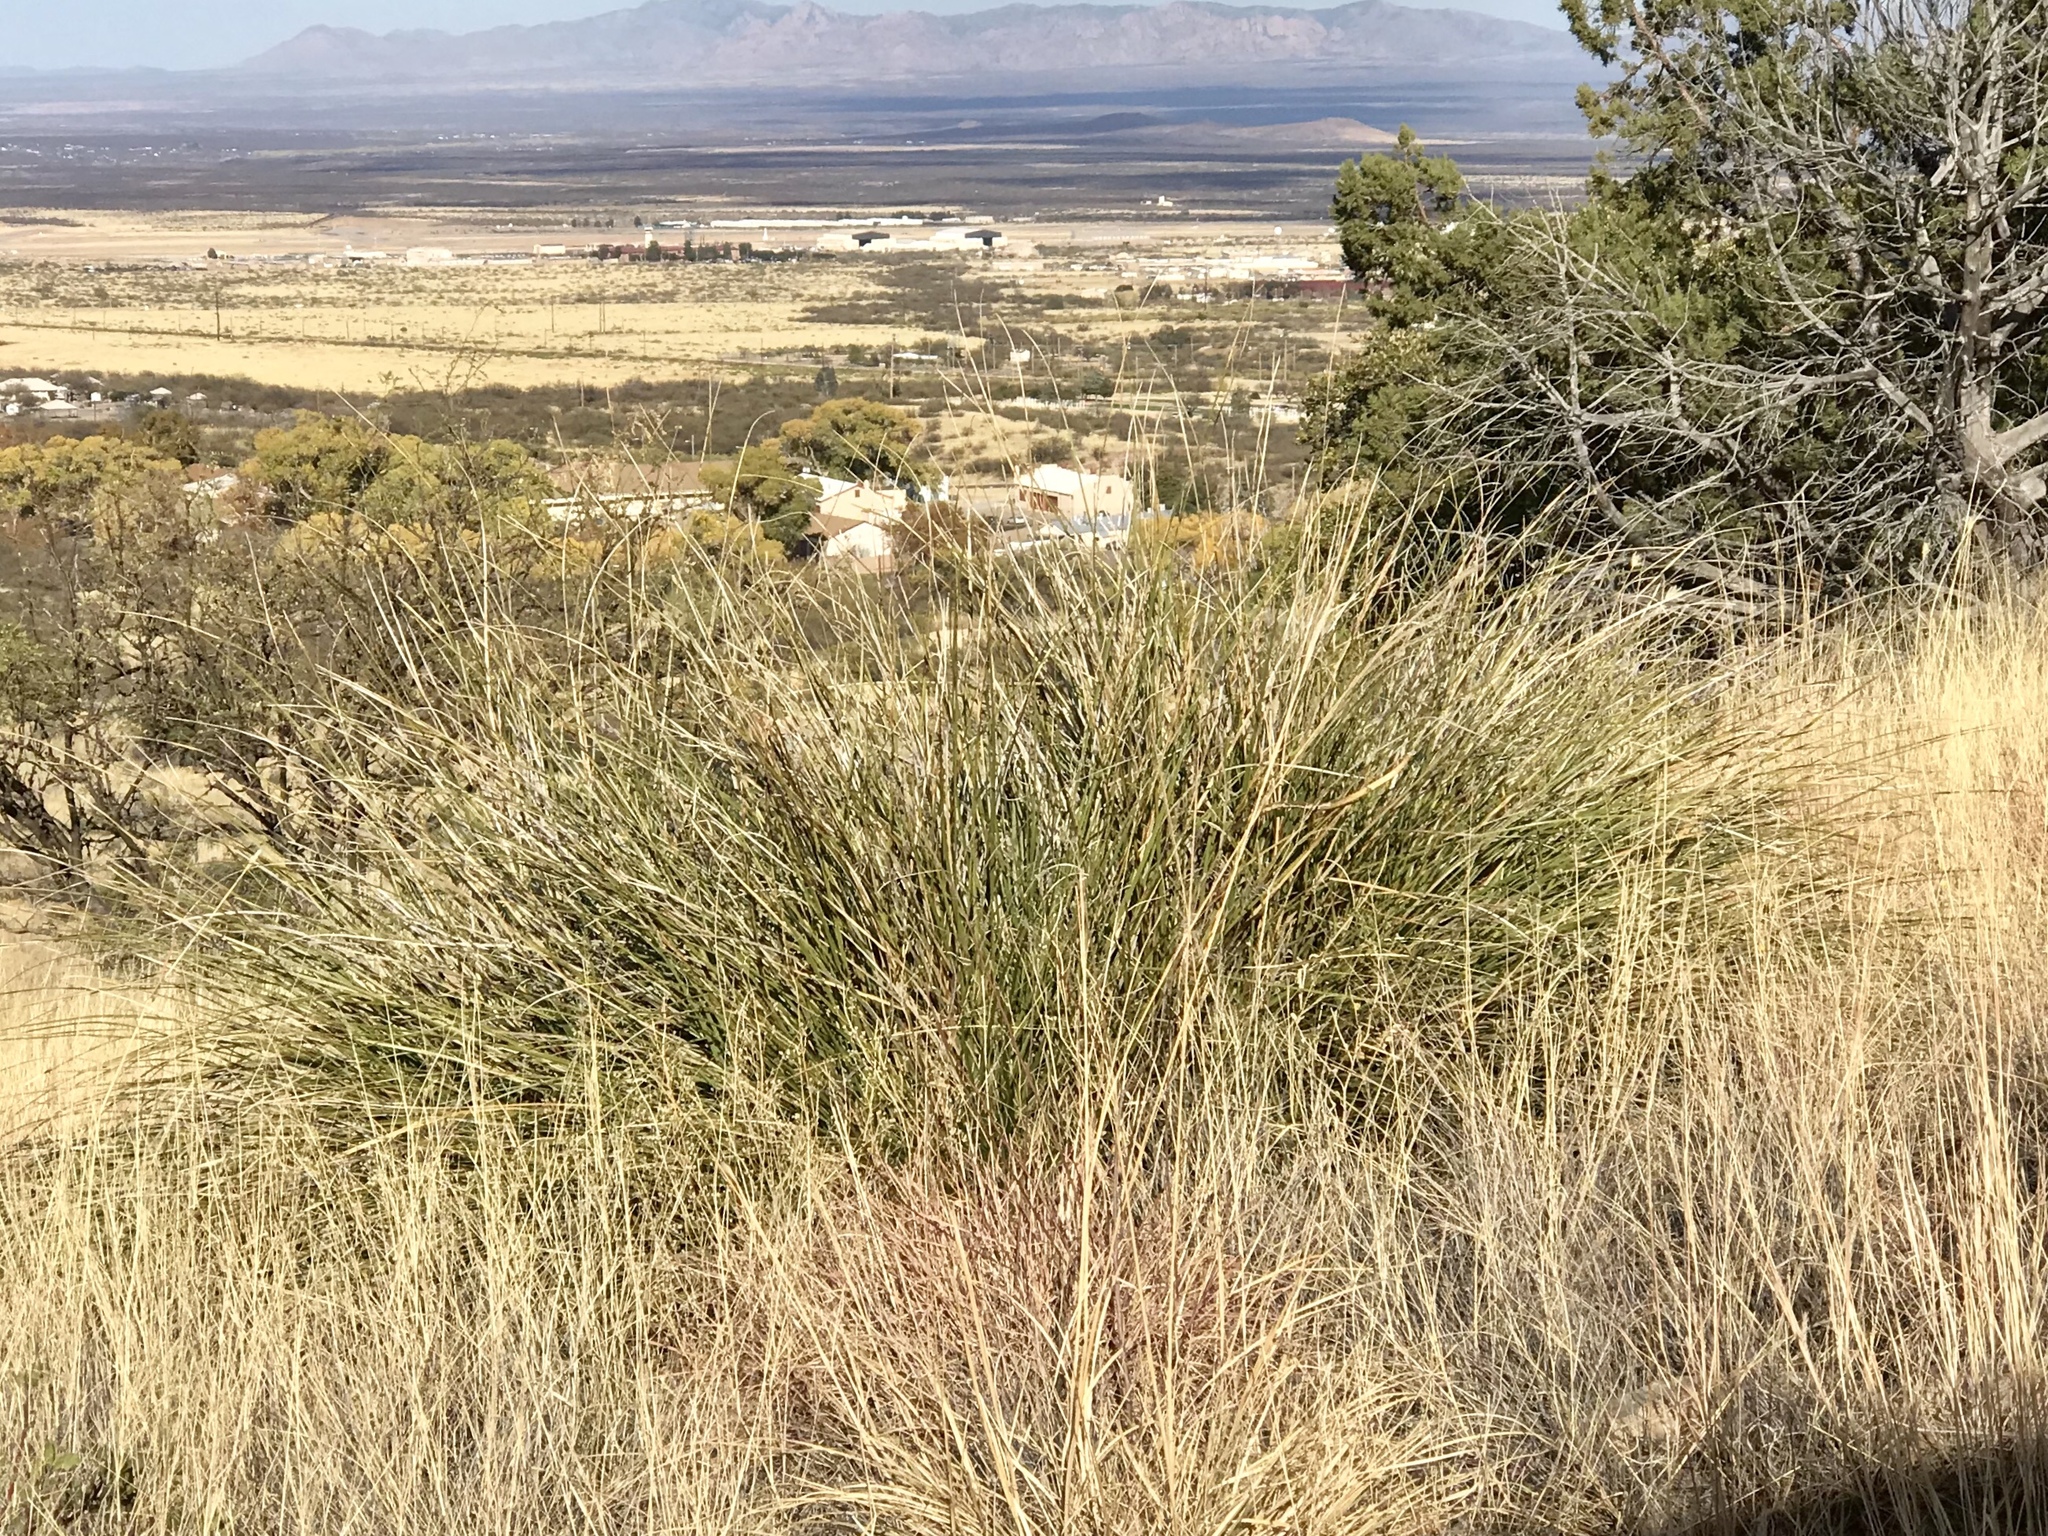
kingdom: Plantae
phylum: Tracheophyta
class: Liliopsida
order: Asparagales
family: Asparagaceae
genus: Nolina
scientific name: Nolina microcarpa
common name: Bear-grass
